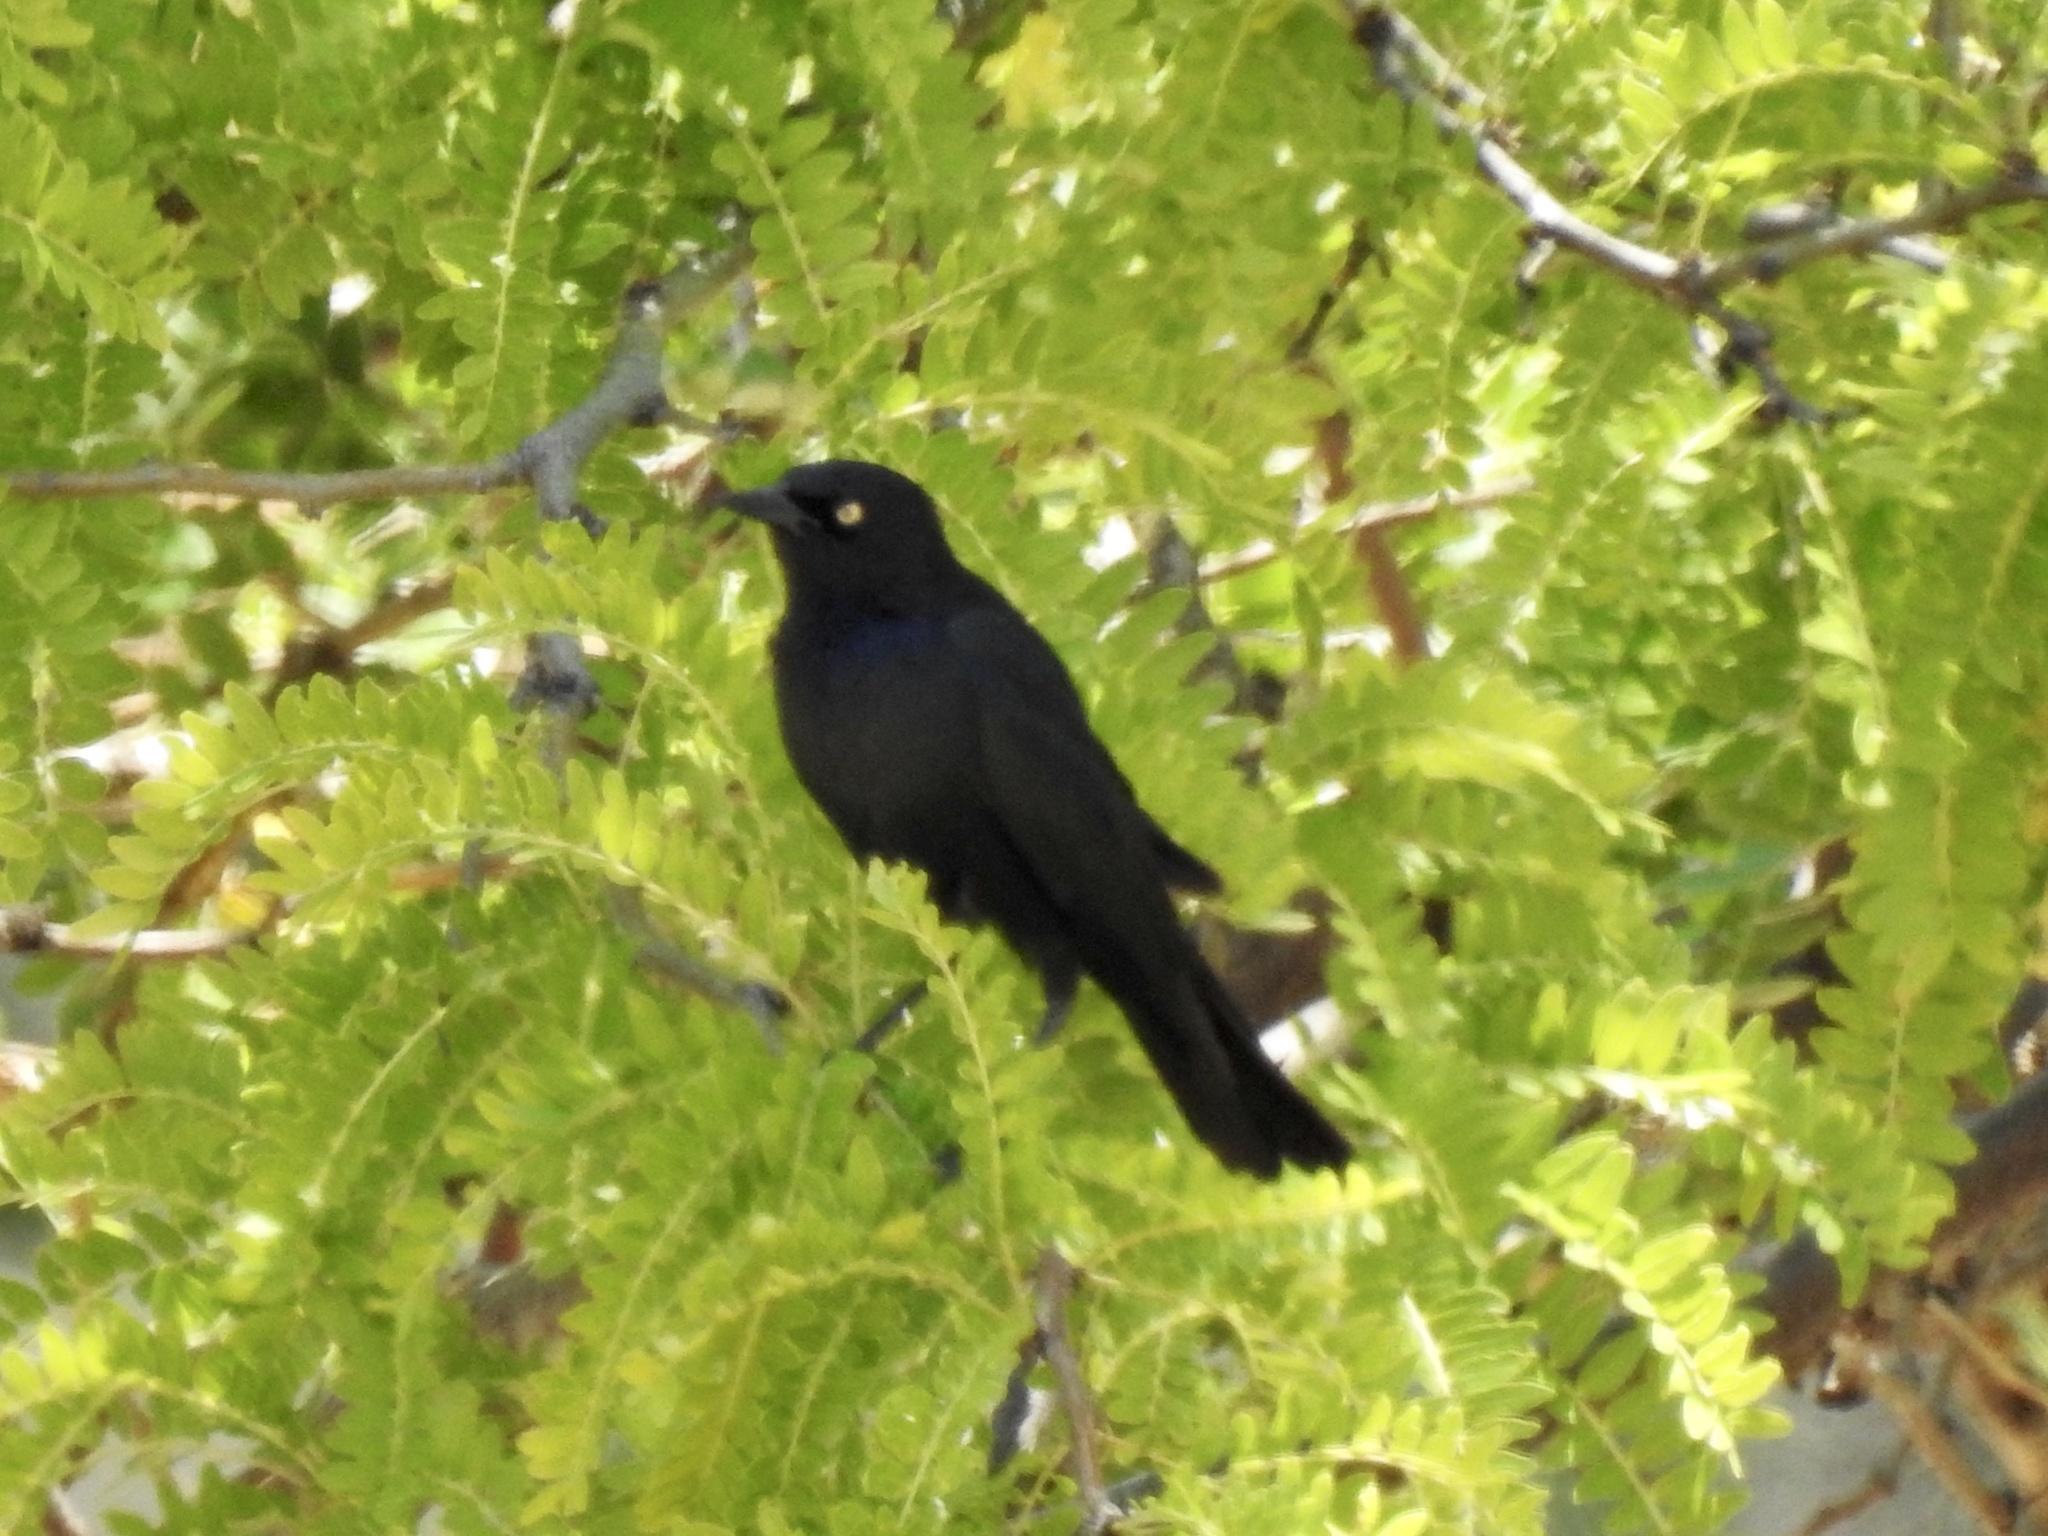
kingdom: Animalia
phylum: Chordata
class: Aves
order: Passeriformes
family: Icteridae
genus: Euphagus
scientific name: Euphagus cyanocephalus
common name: Brewer's blackbird
